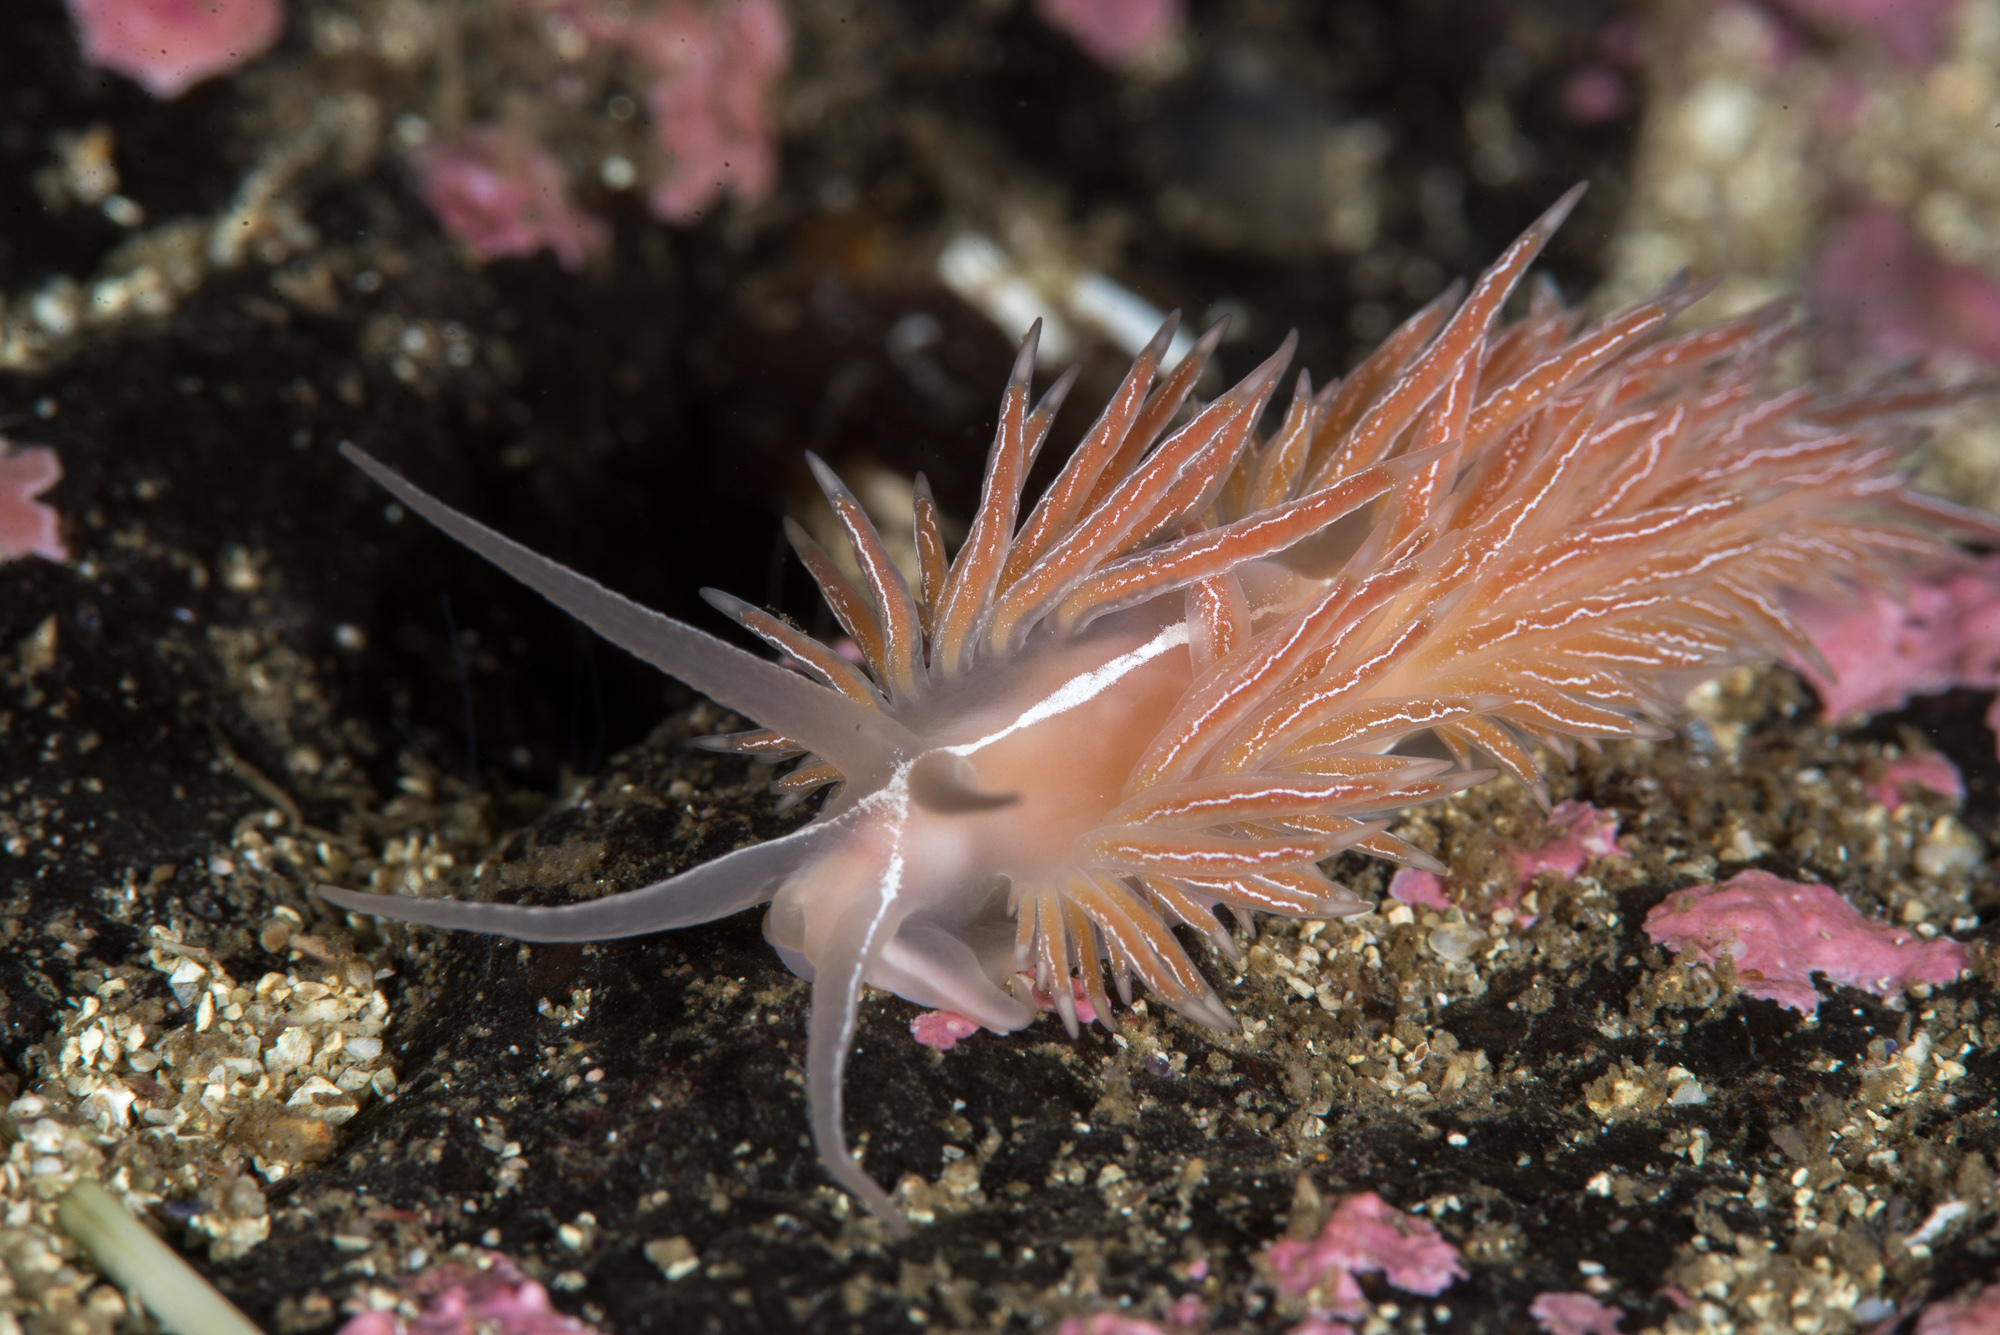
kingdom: Animalia
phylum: Mollusca
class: Gastropoda
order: Nudibranchia
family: Coryphellidae
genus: Coryphella
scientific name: Coryphella chriskaugei
